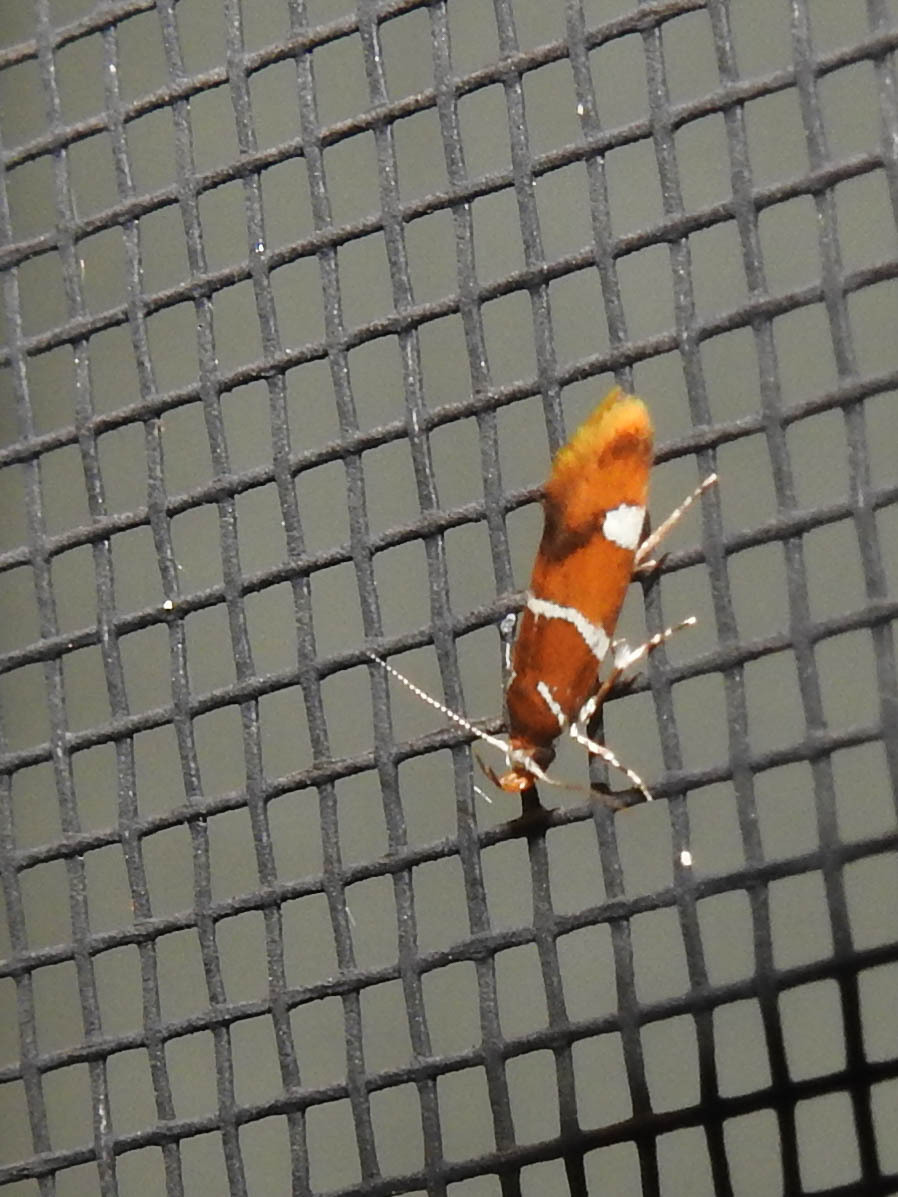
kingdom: Animalia
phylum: Arthropoda
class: Insecta
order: Lepidoptera
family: Oecophoridae
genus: Promalactis
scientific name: Promalactis suzukiella
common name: Moth
